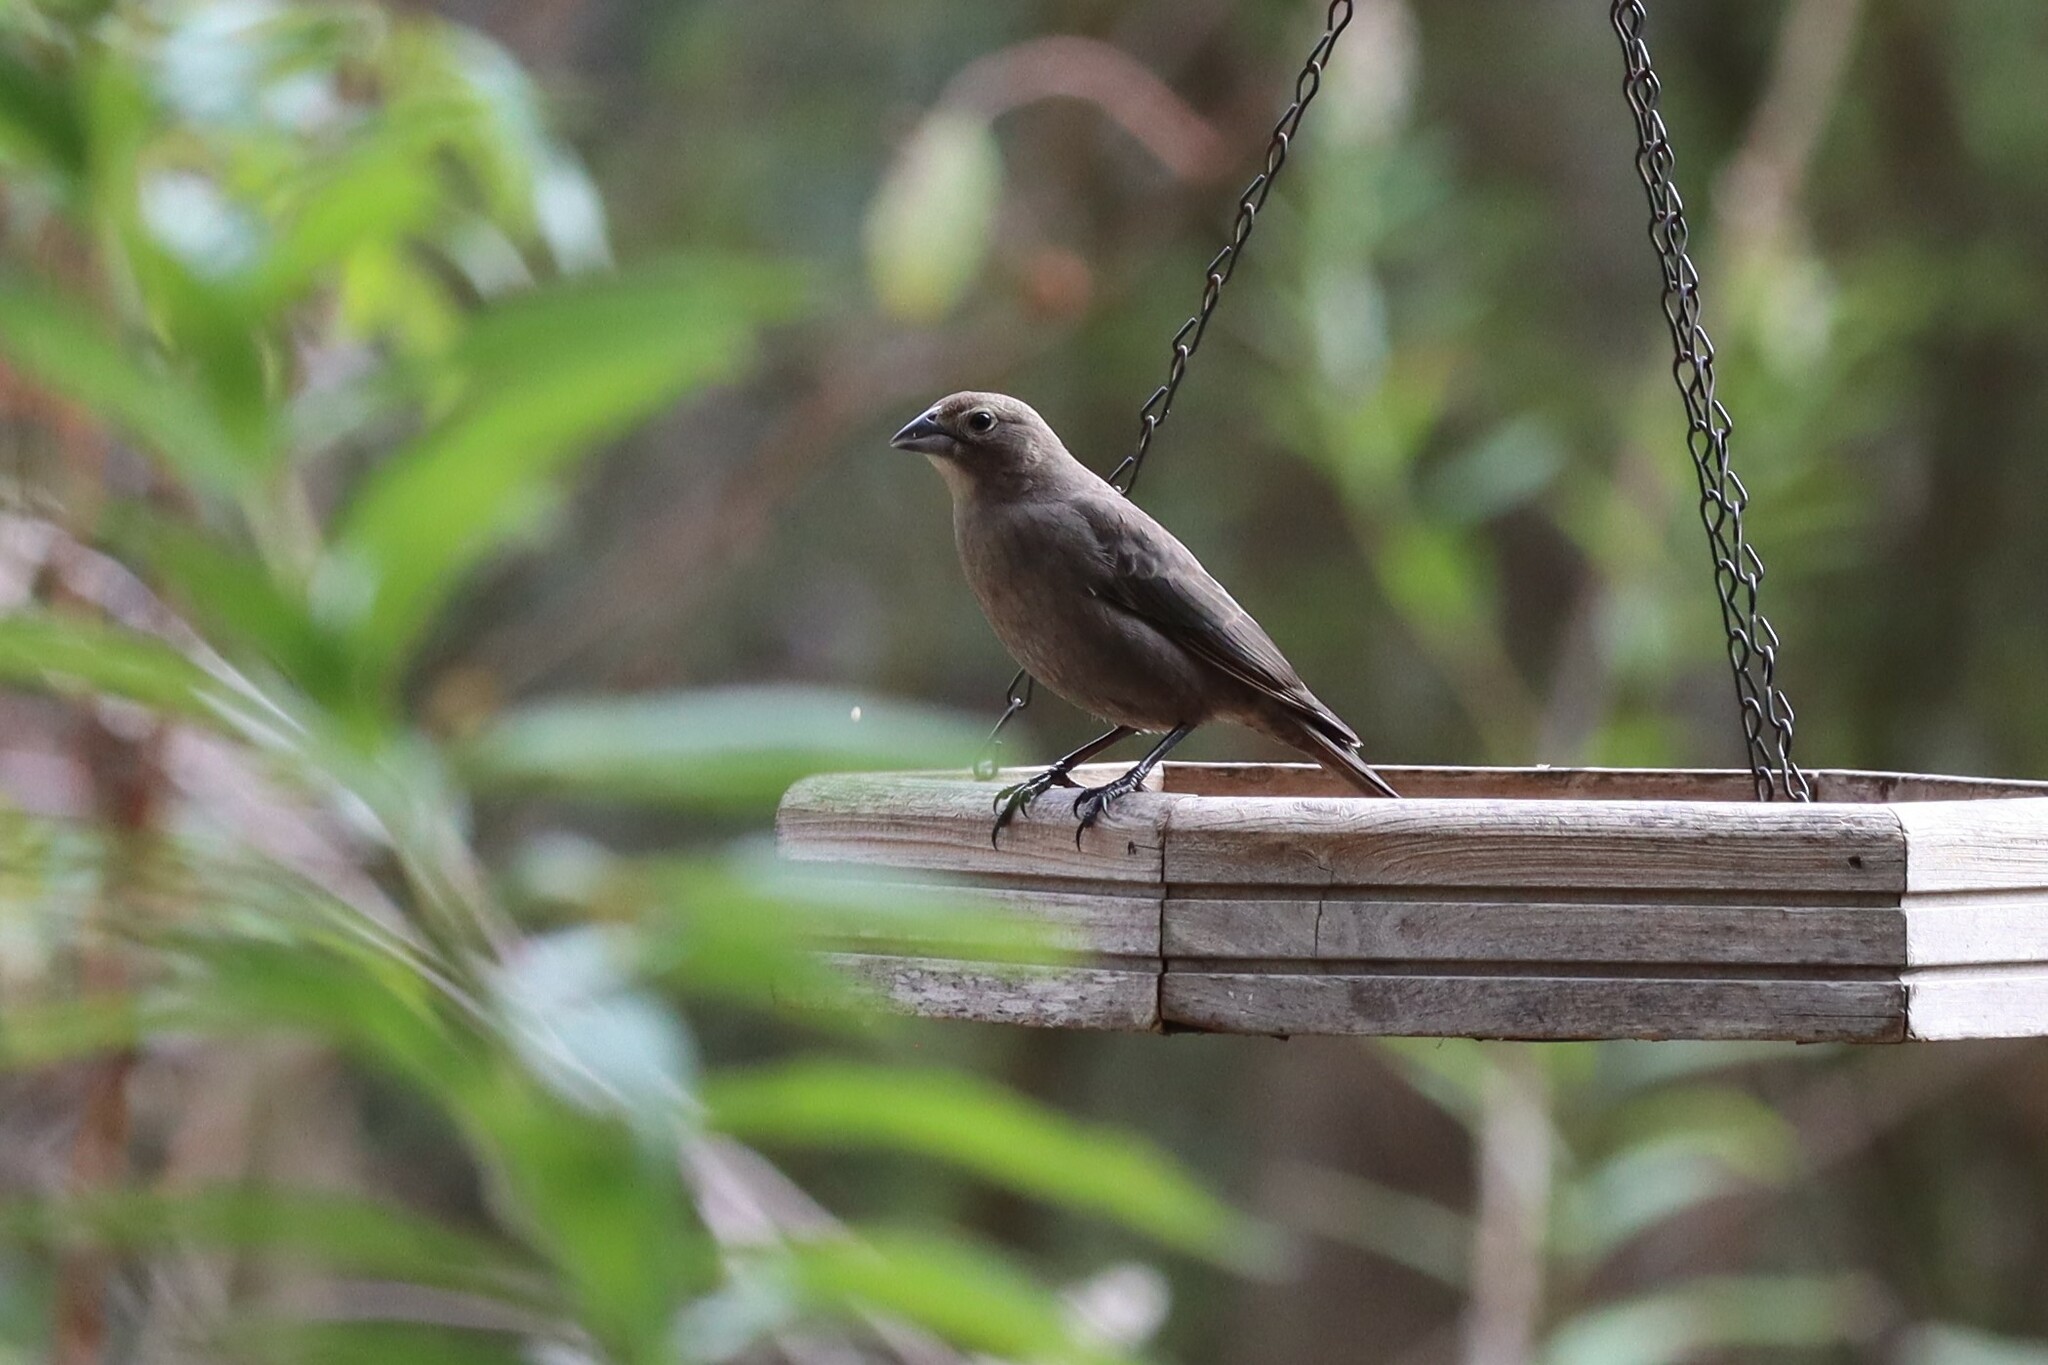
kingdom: Animalia
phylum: Chordata
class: Aves
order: Passeriformes
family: Icteridae
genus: Molothrus
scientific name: Molothrus ater
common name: Brown-headed cowbird
